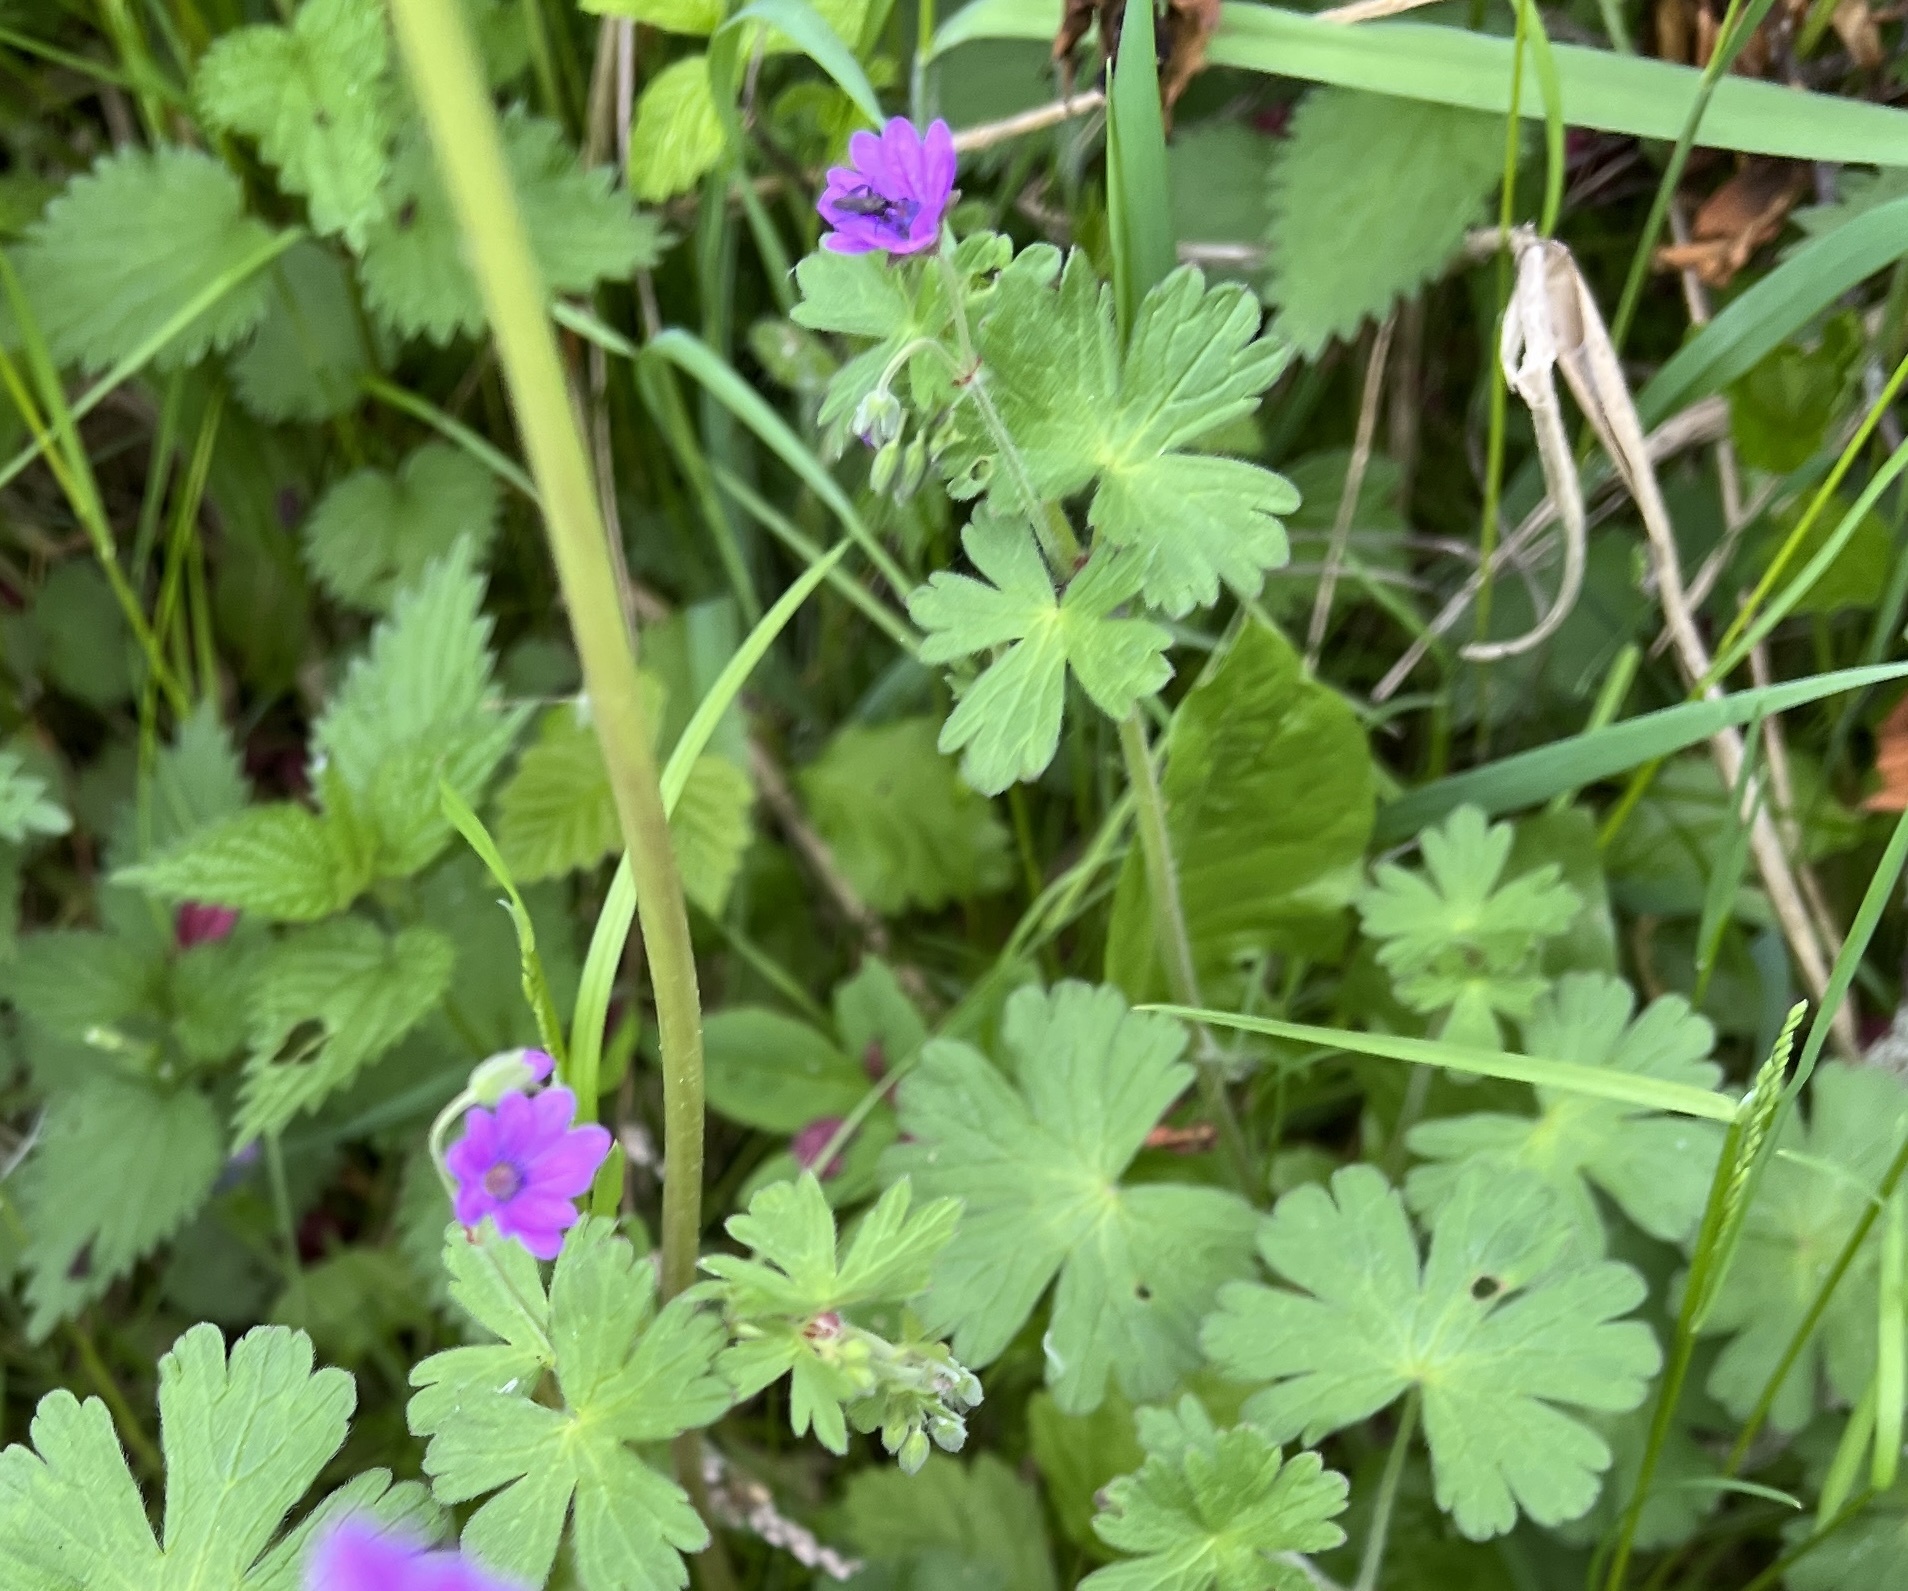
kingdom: Plantae
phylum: Tracheophyta
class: Magnoliopsida
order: Geraniales
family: Geraniaceae
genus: Geranium
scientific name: Geranium pyrenaicum
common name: Hedgerow crane's-bill
